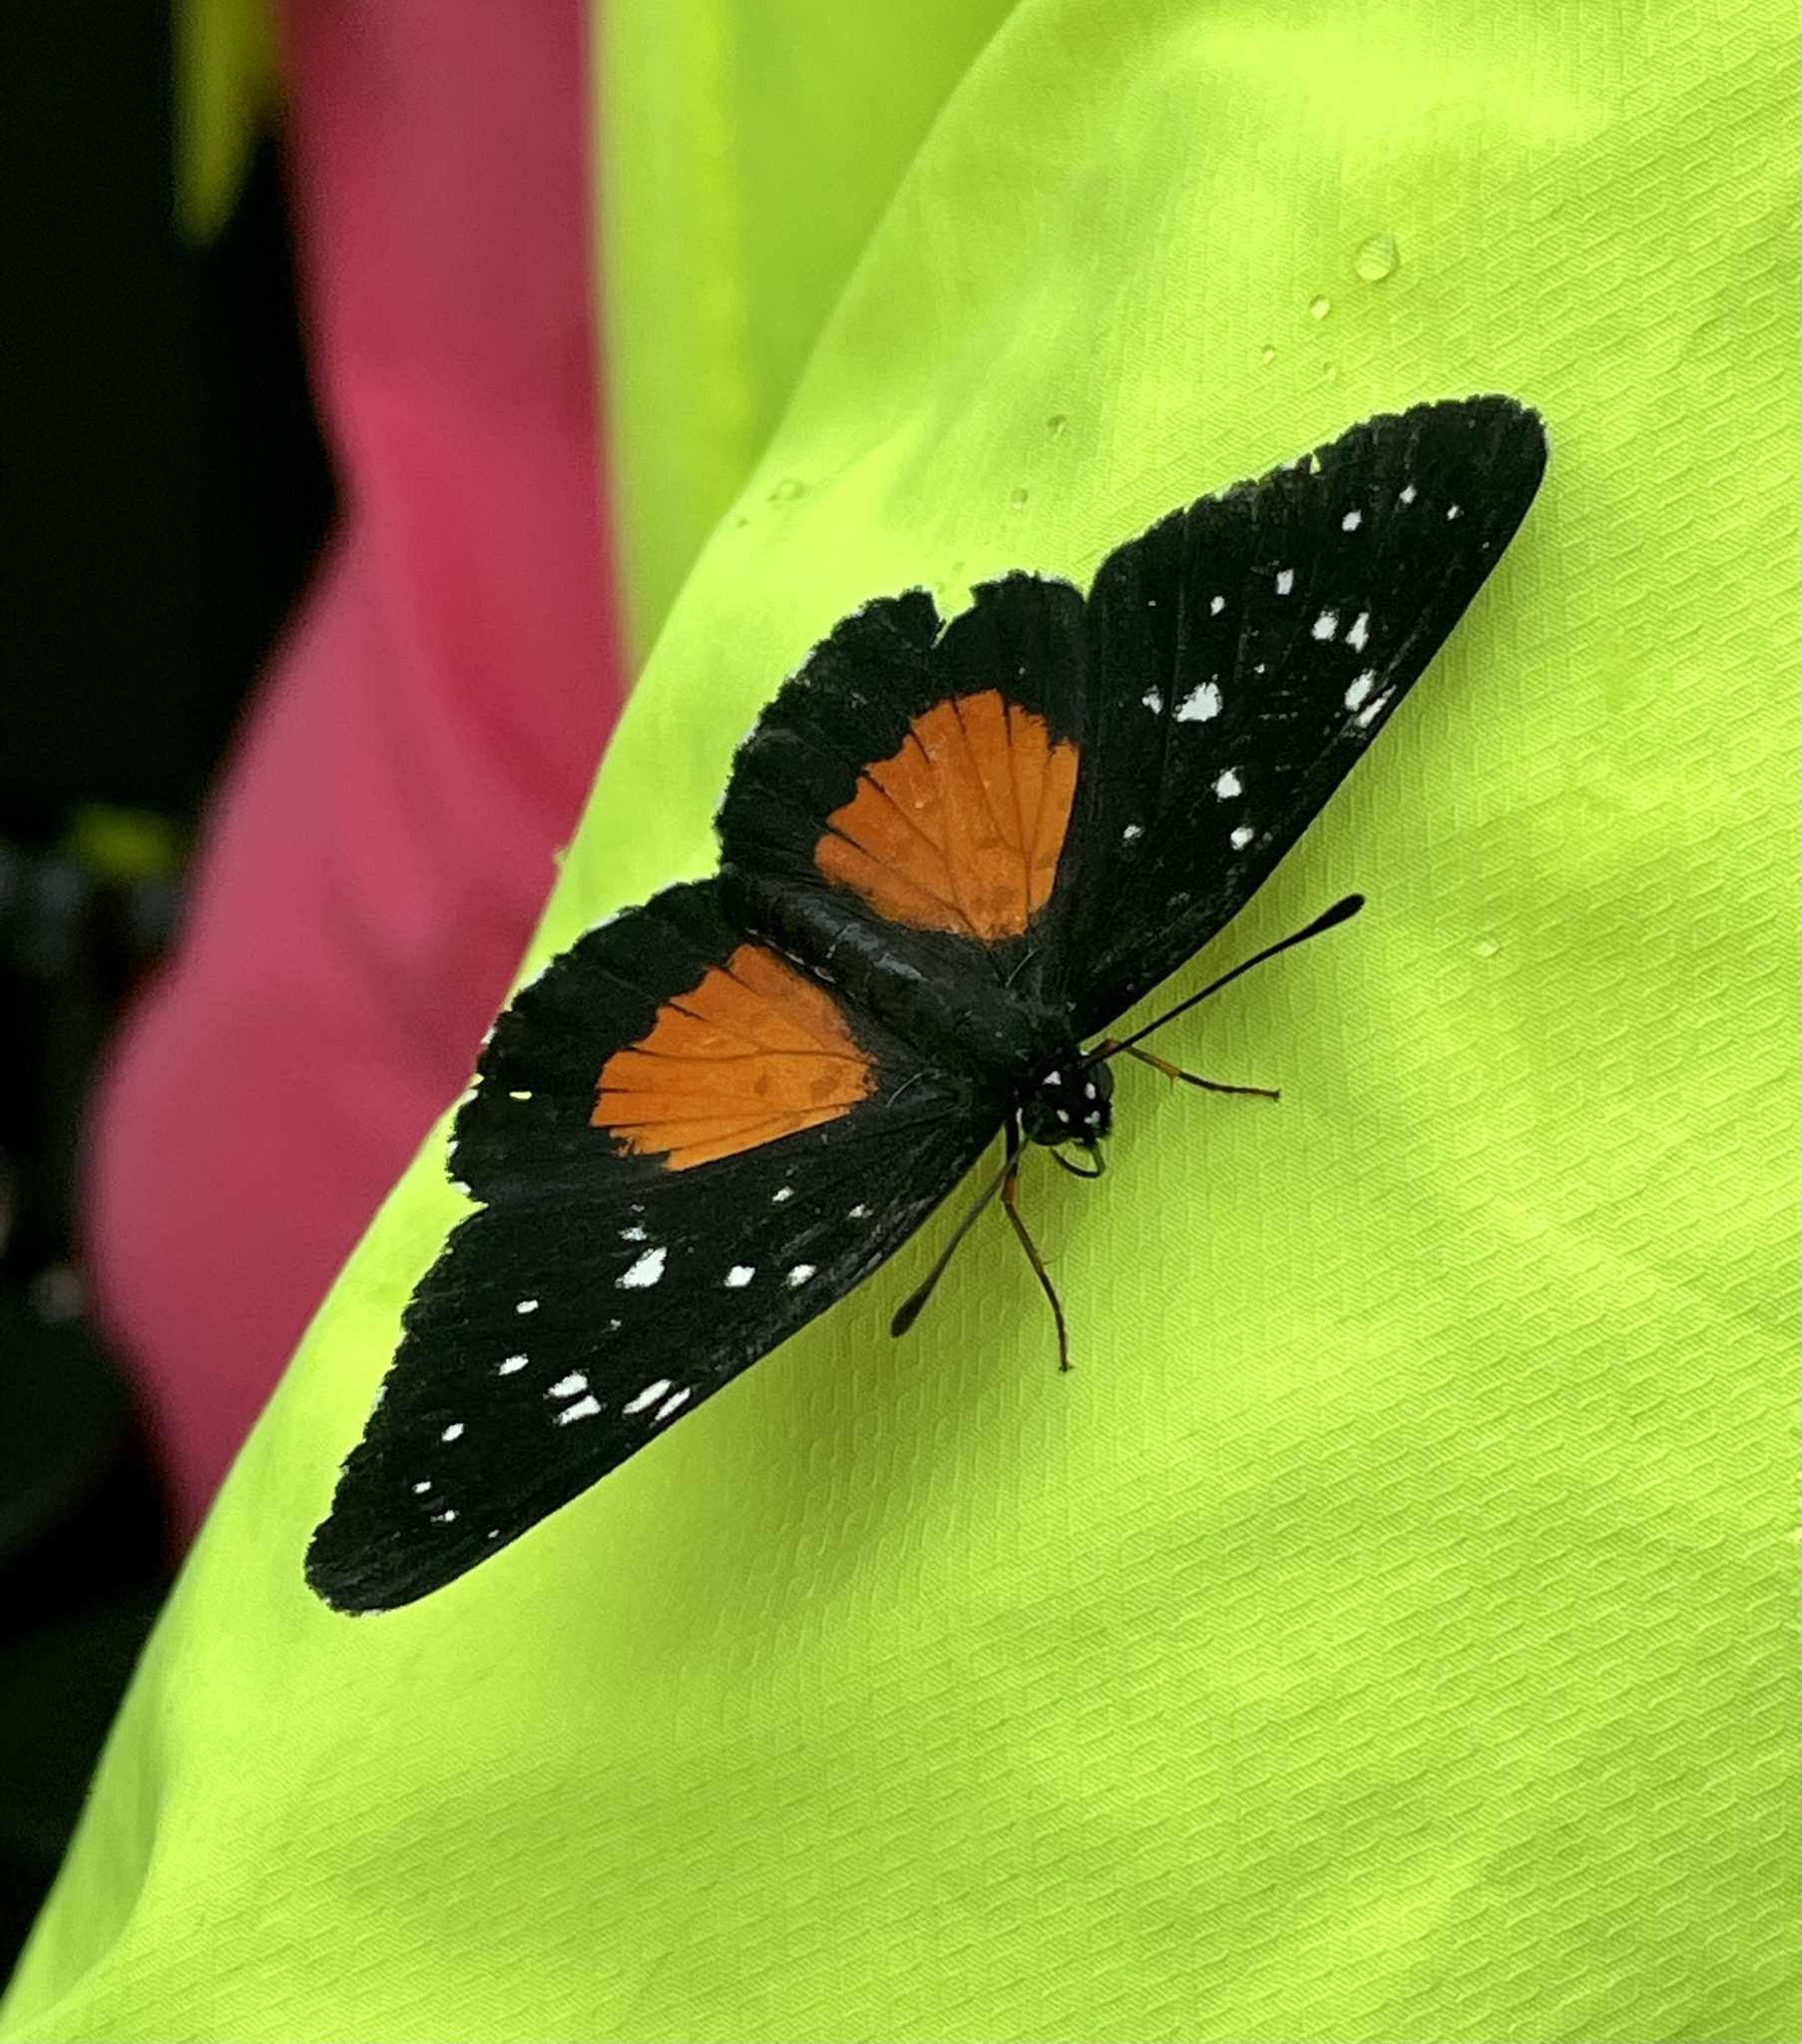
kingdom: Animalia
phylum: Arthropoda
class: Insecta
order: Lepidoptera
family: Nymphalidae
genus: Chlosyne
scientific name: Chlosyne lacinia
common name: Bordered patch
